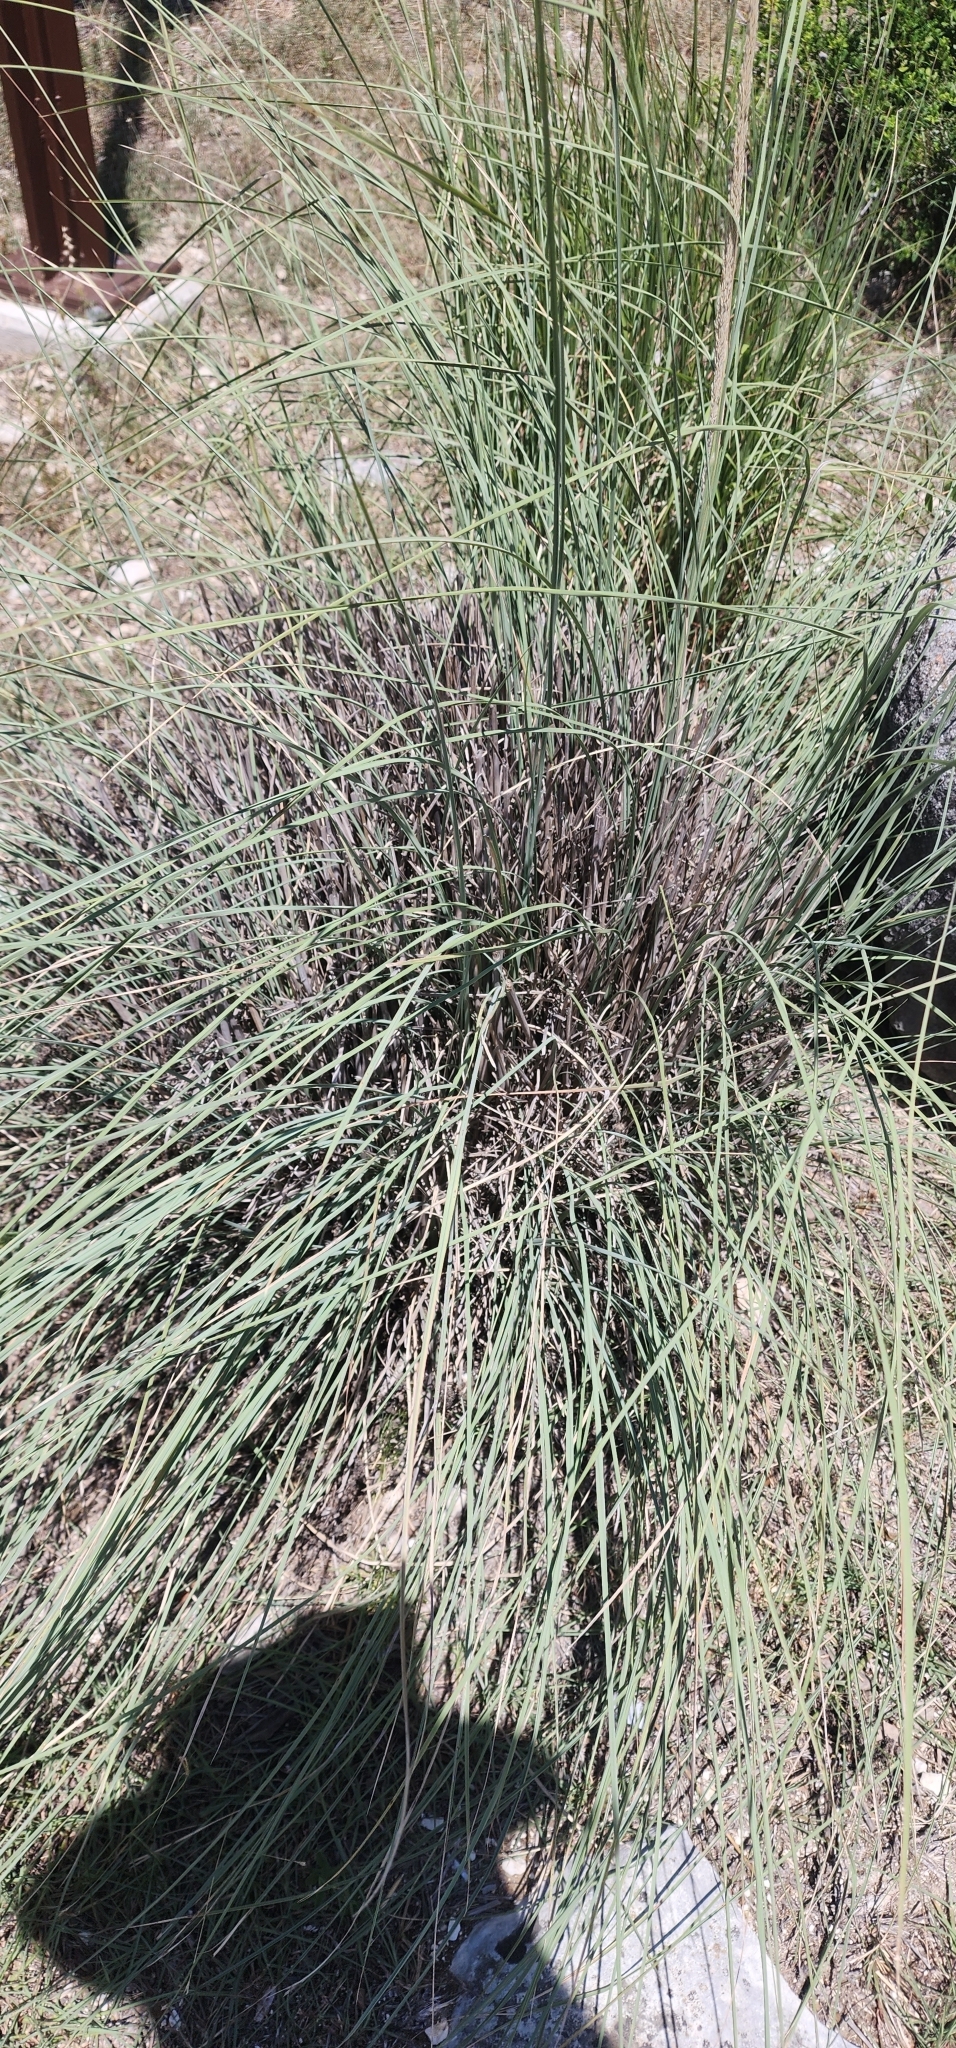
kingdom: Plantae
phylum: Tracheophyta
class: Liliopsida
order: Poales
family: Poaceae
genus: Muhlenbergia
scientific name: Muhlenbergia lindheimeri
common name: Lindheimer's muhly
